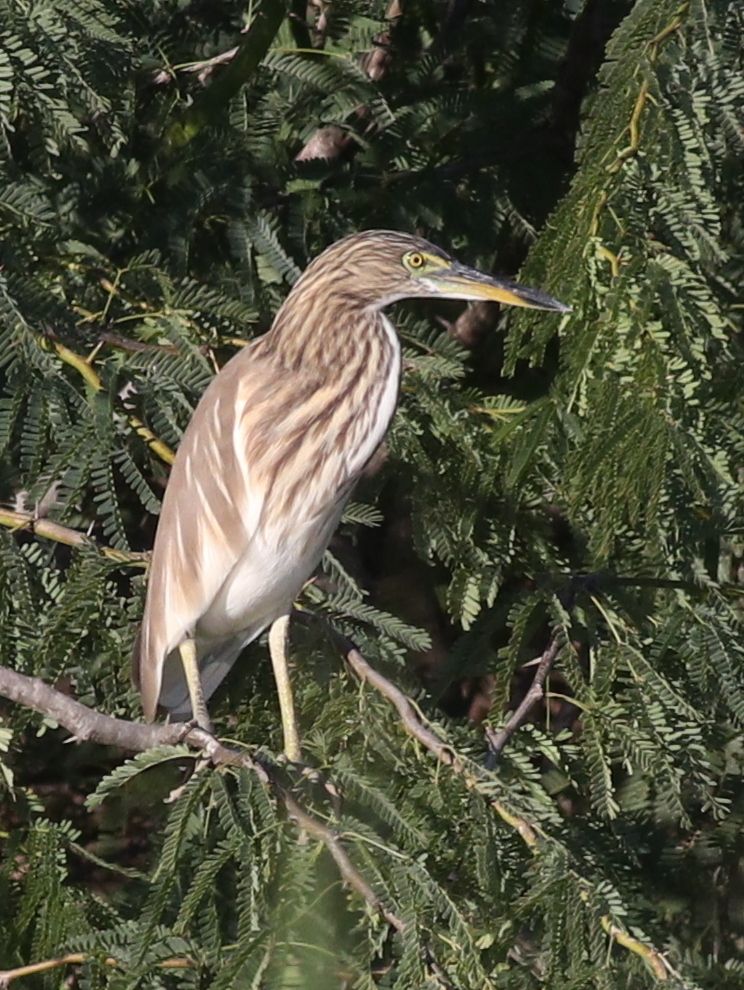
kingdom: Animalia
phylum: Chordata
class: Aves
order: Pelecaniformes
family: Ardeidae
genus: Ardeola
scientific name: Ardeola grayii
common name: Indian pond heron
